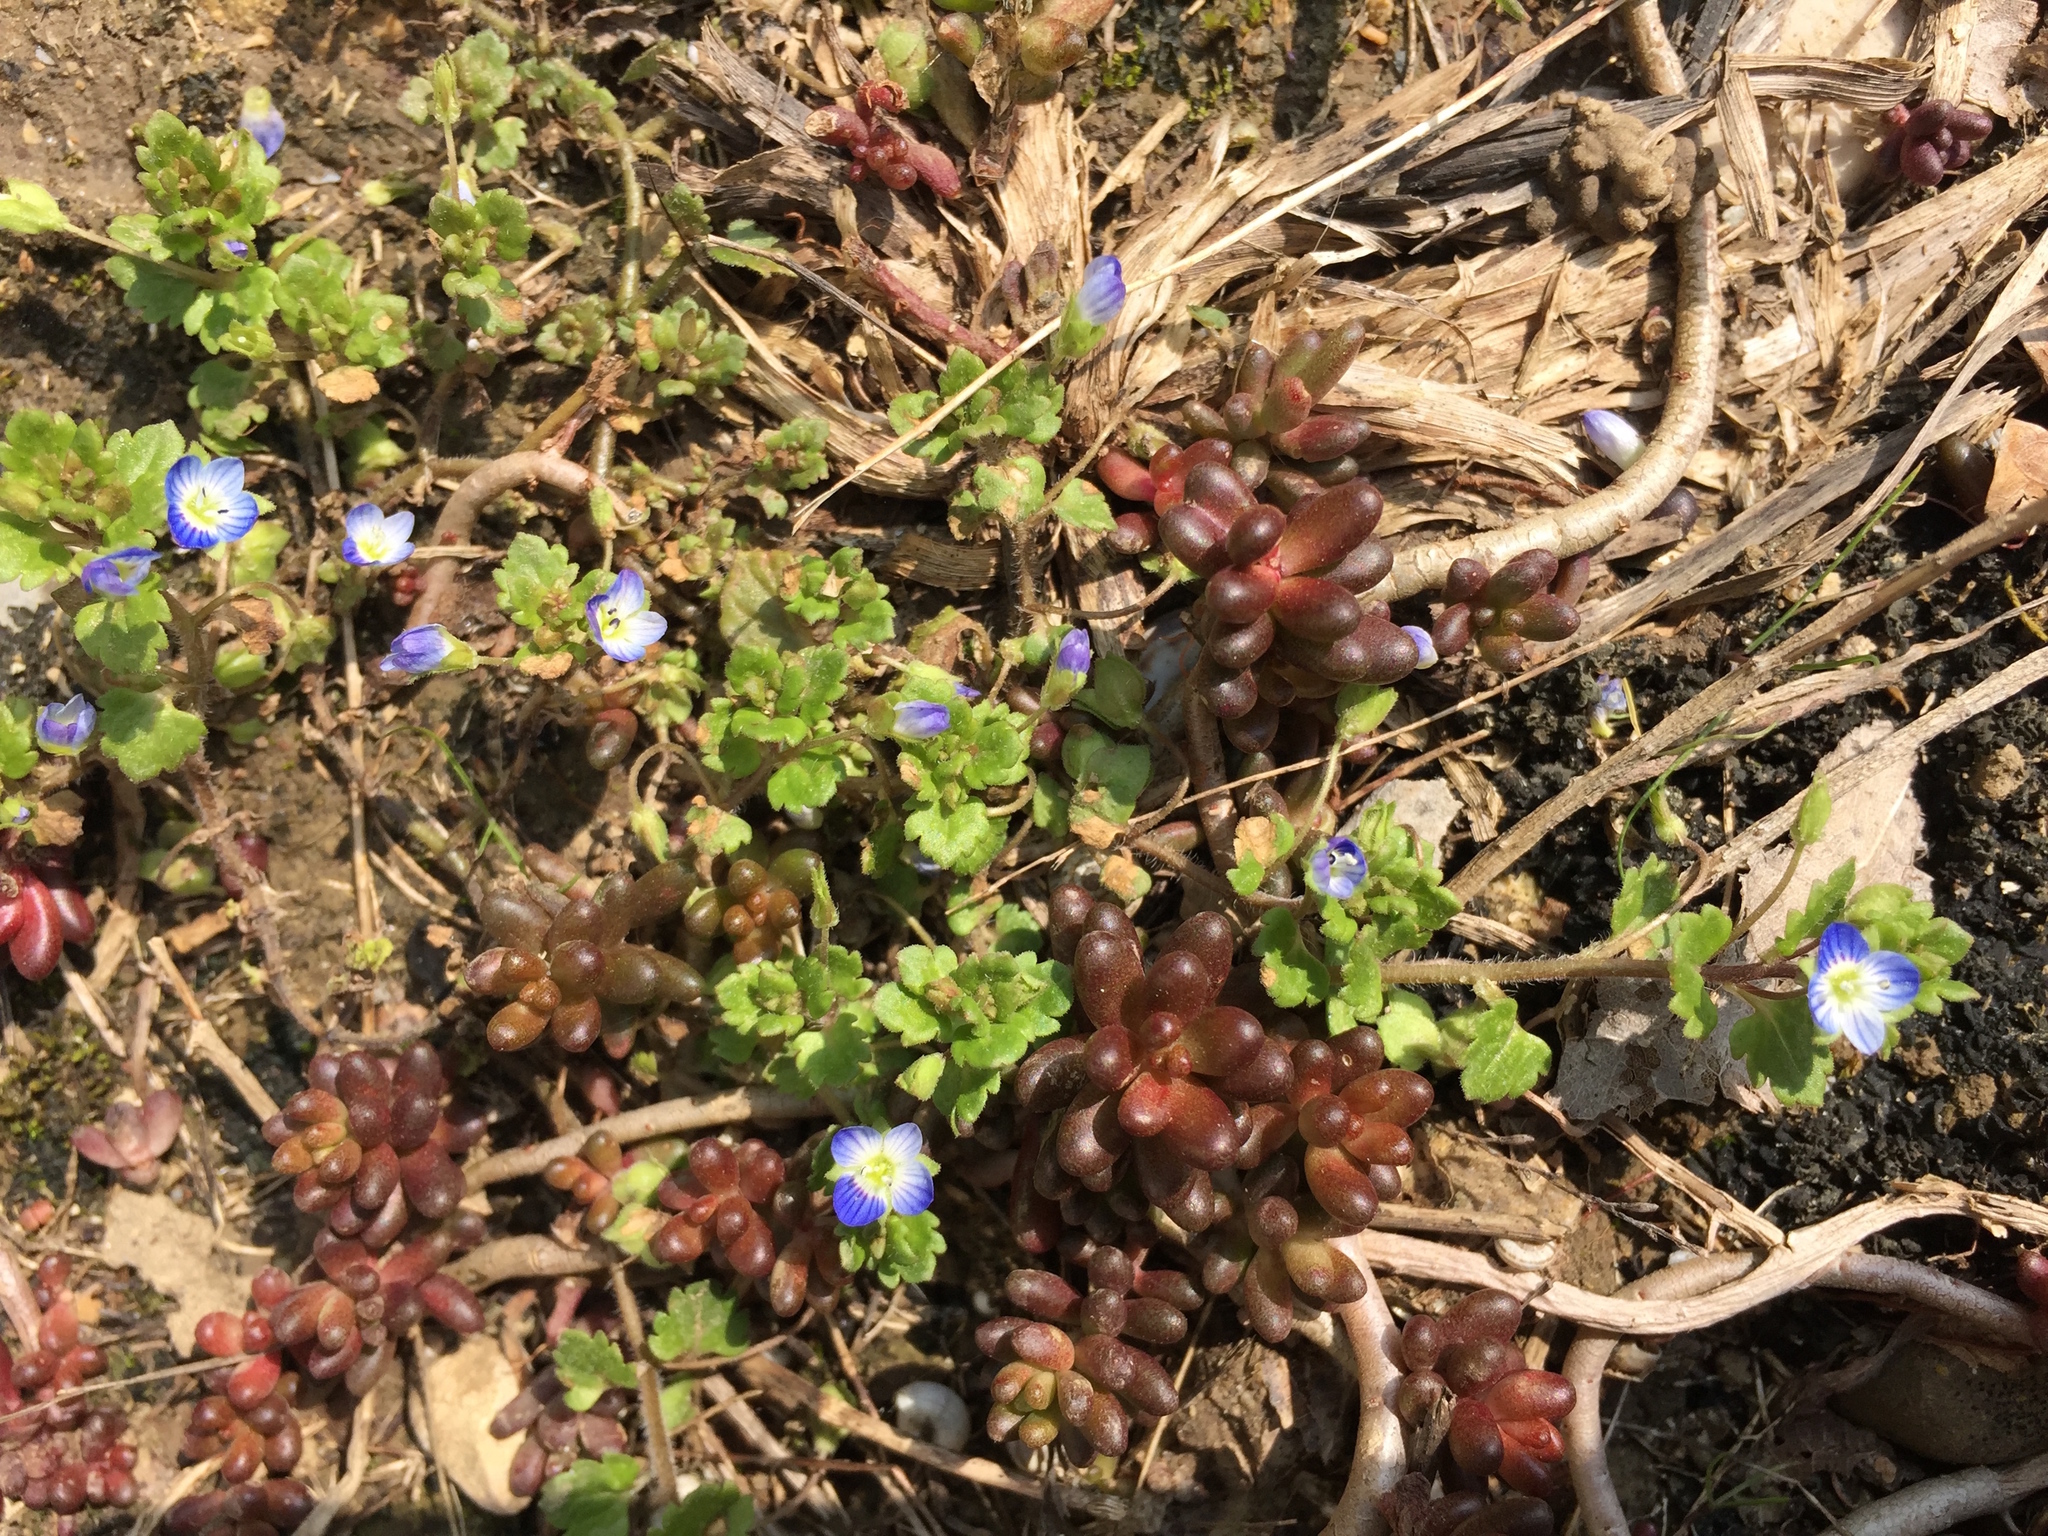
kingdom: Plantae
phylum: Tracheophyta
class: Magnoliopsida
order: Lamiales
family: Plantaginaceae
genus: Veronica
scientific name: Veronica polita
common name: Grey field-speedwell
